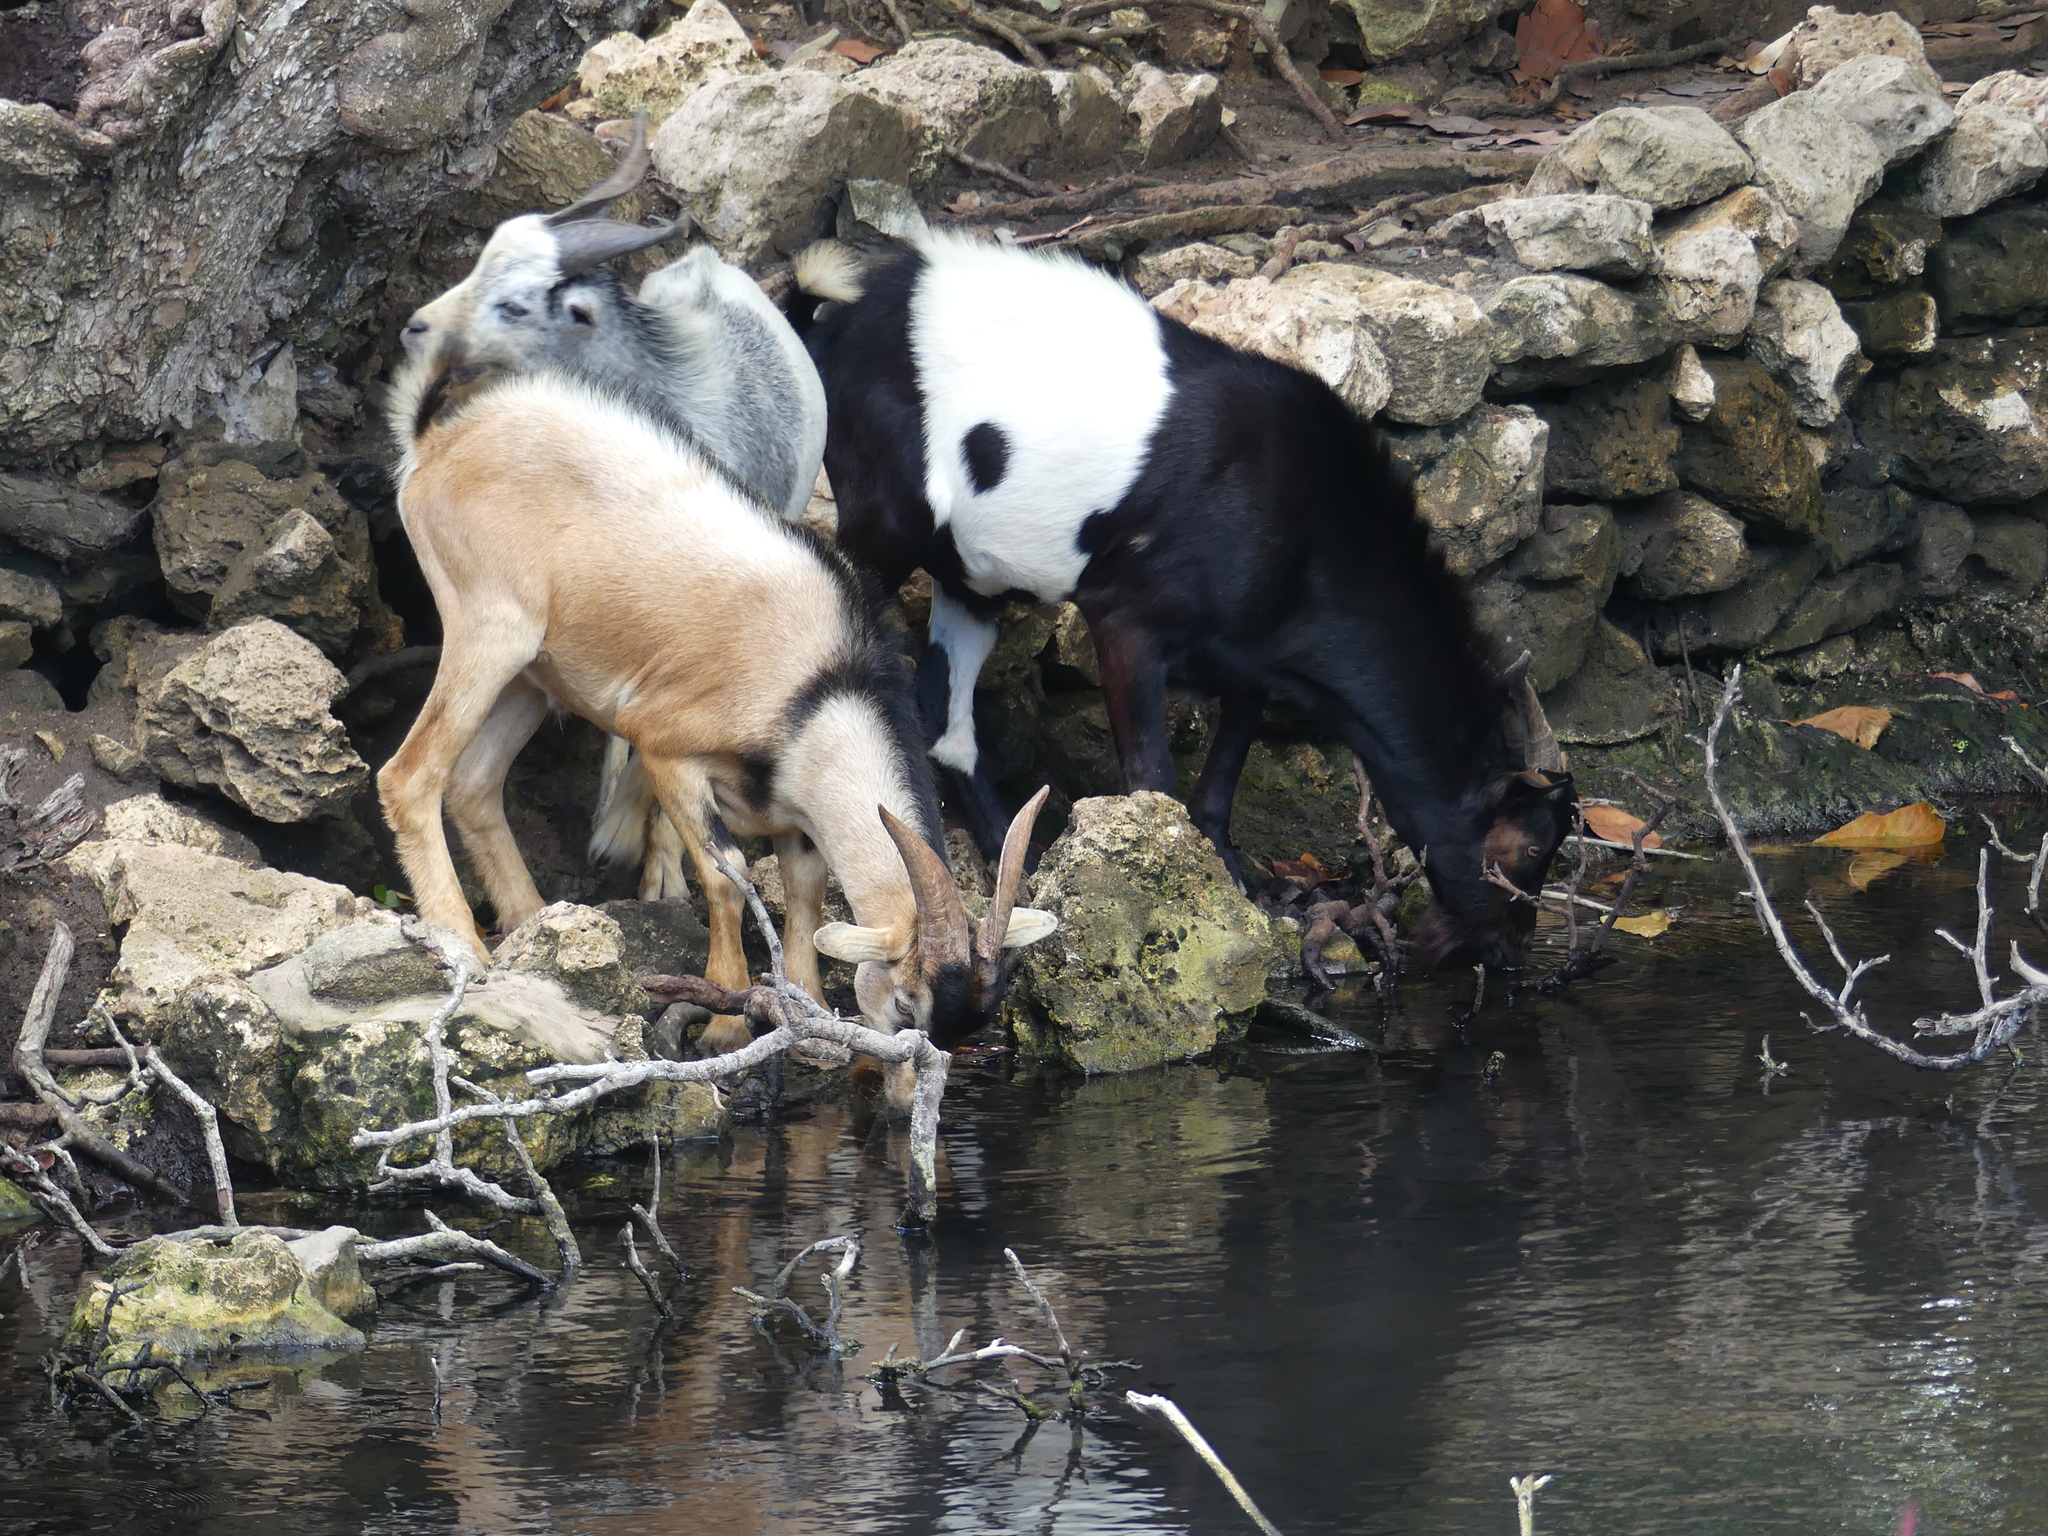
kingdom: Animalia
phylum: Chordata
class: Mammalia
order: Artiodactyla
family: Bovidae
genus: Capra
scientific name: Capra hircus
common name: Domestic goat
